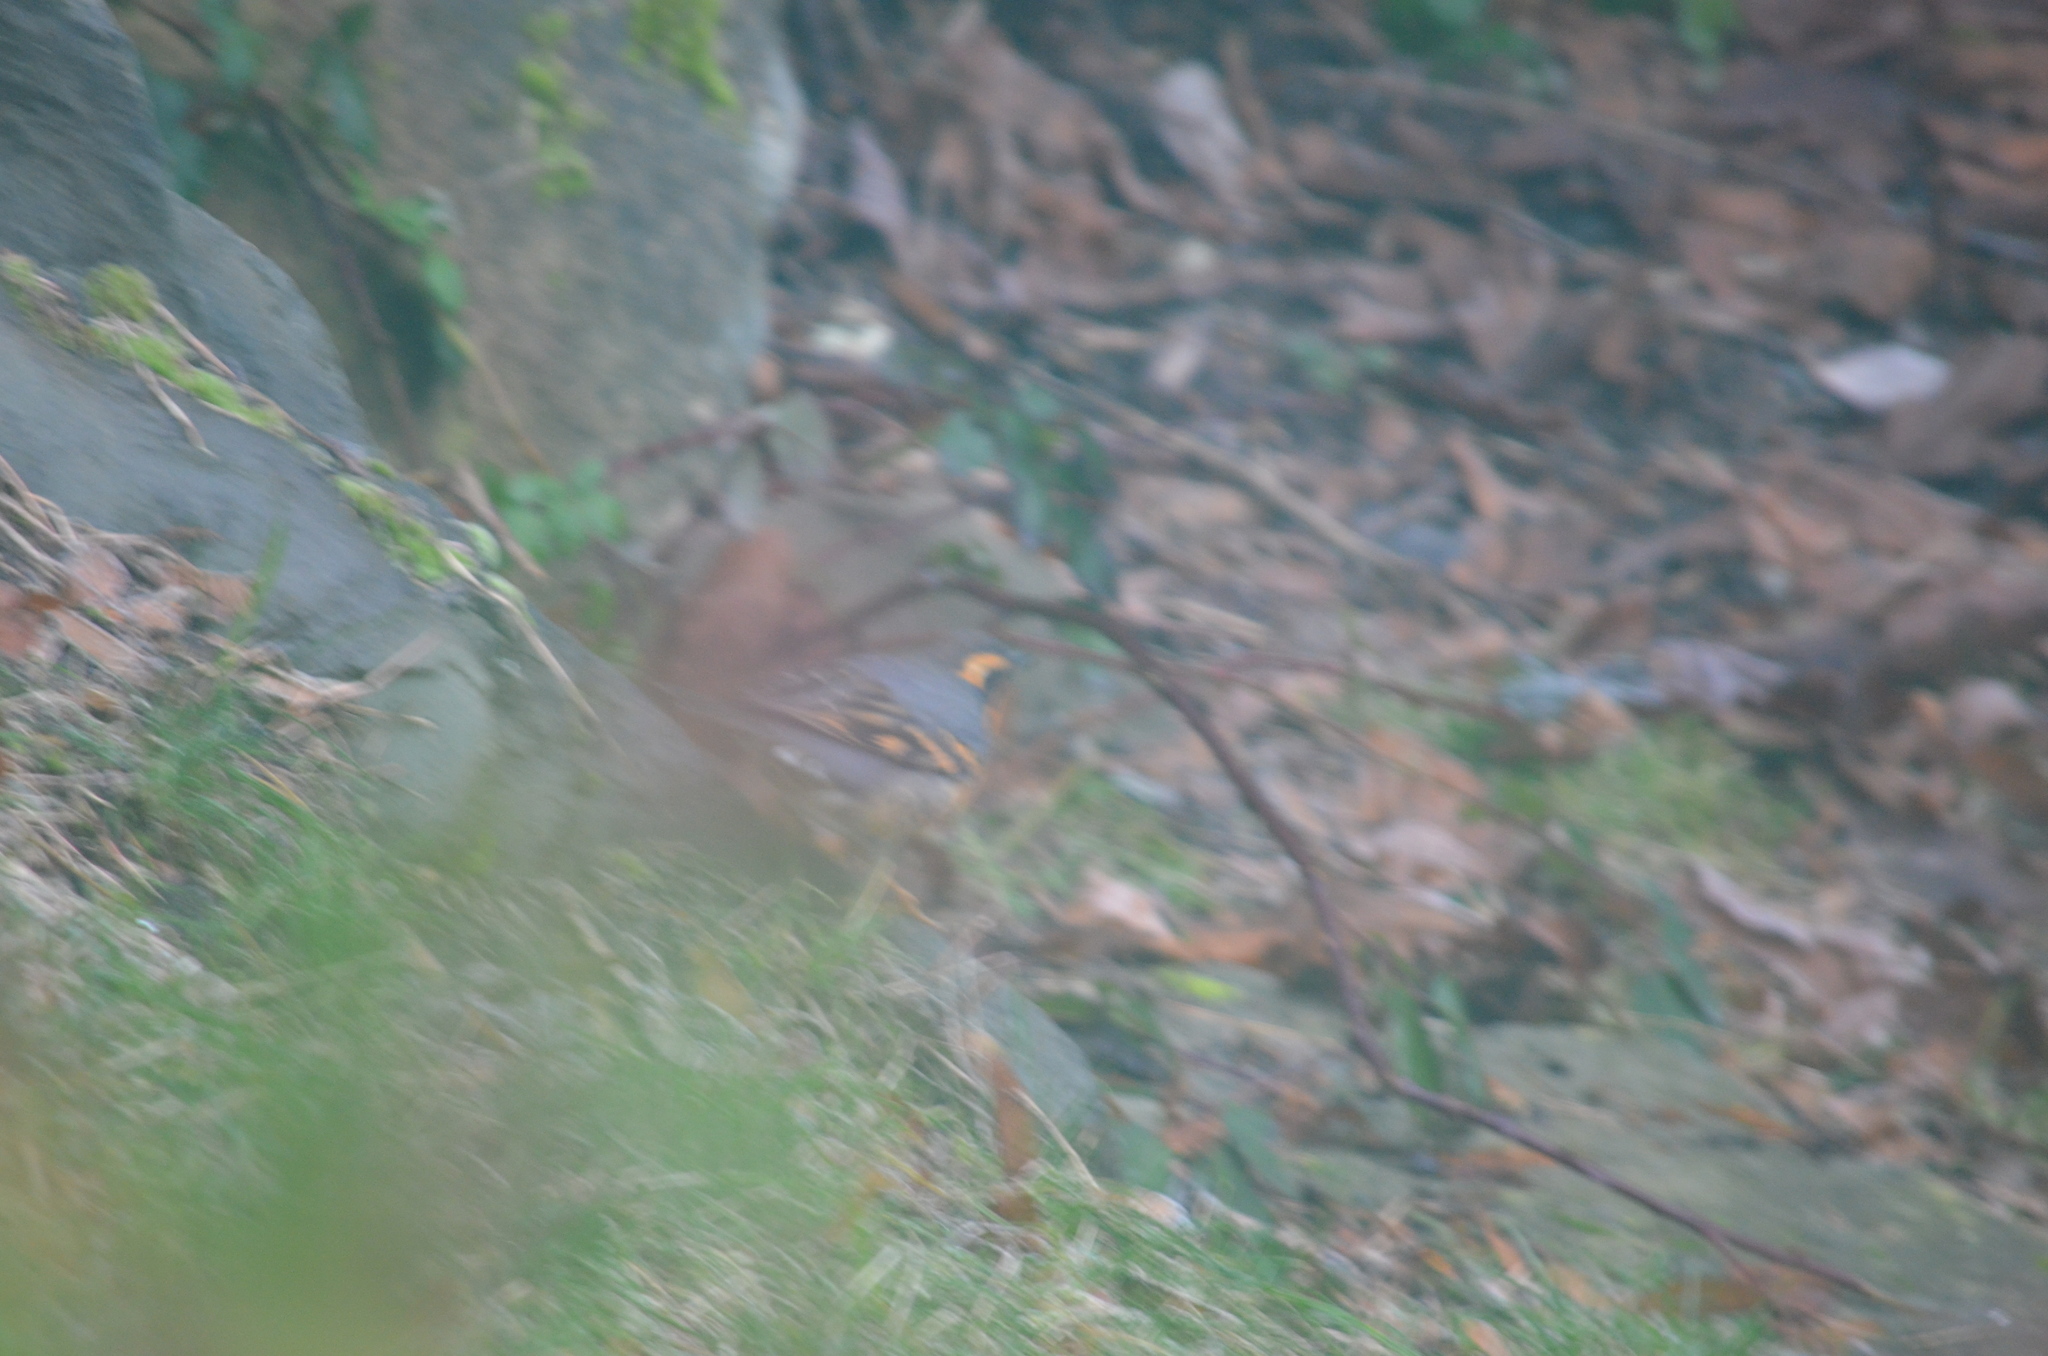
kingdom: Animalia
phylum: Chordata
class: Aves
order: Passeriformes
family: Turdidae
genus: Ixoreus
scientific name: Ixoreus naevius
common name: Varied thrush
